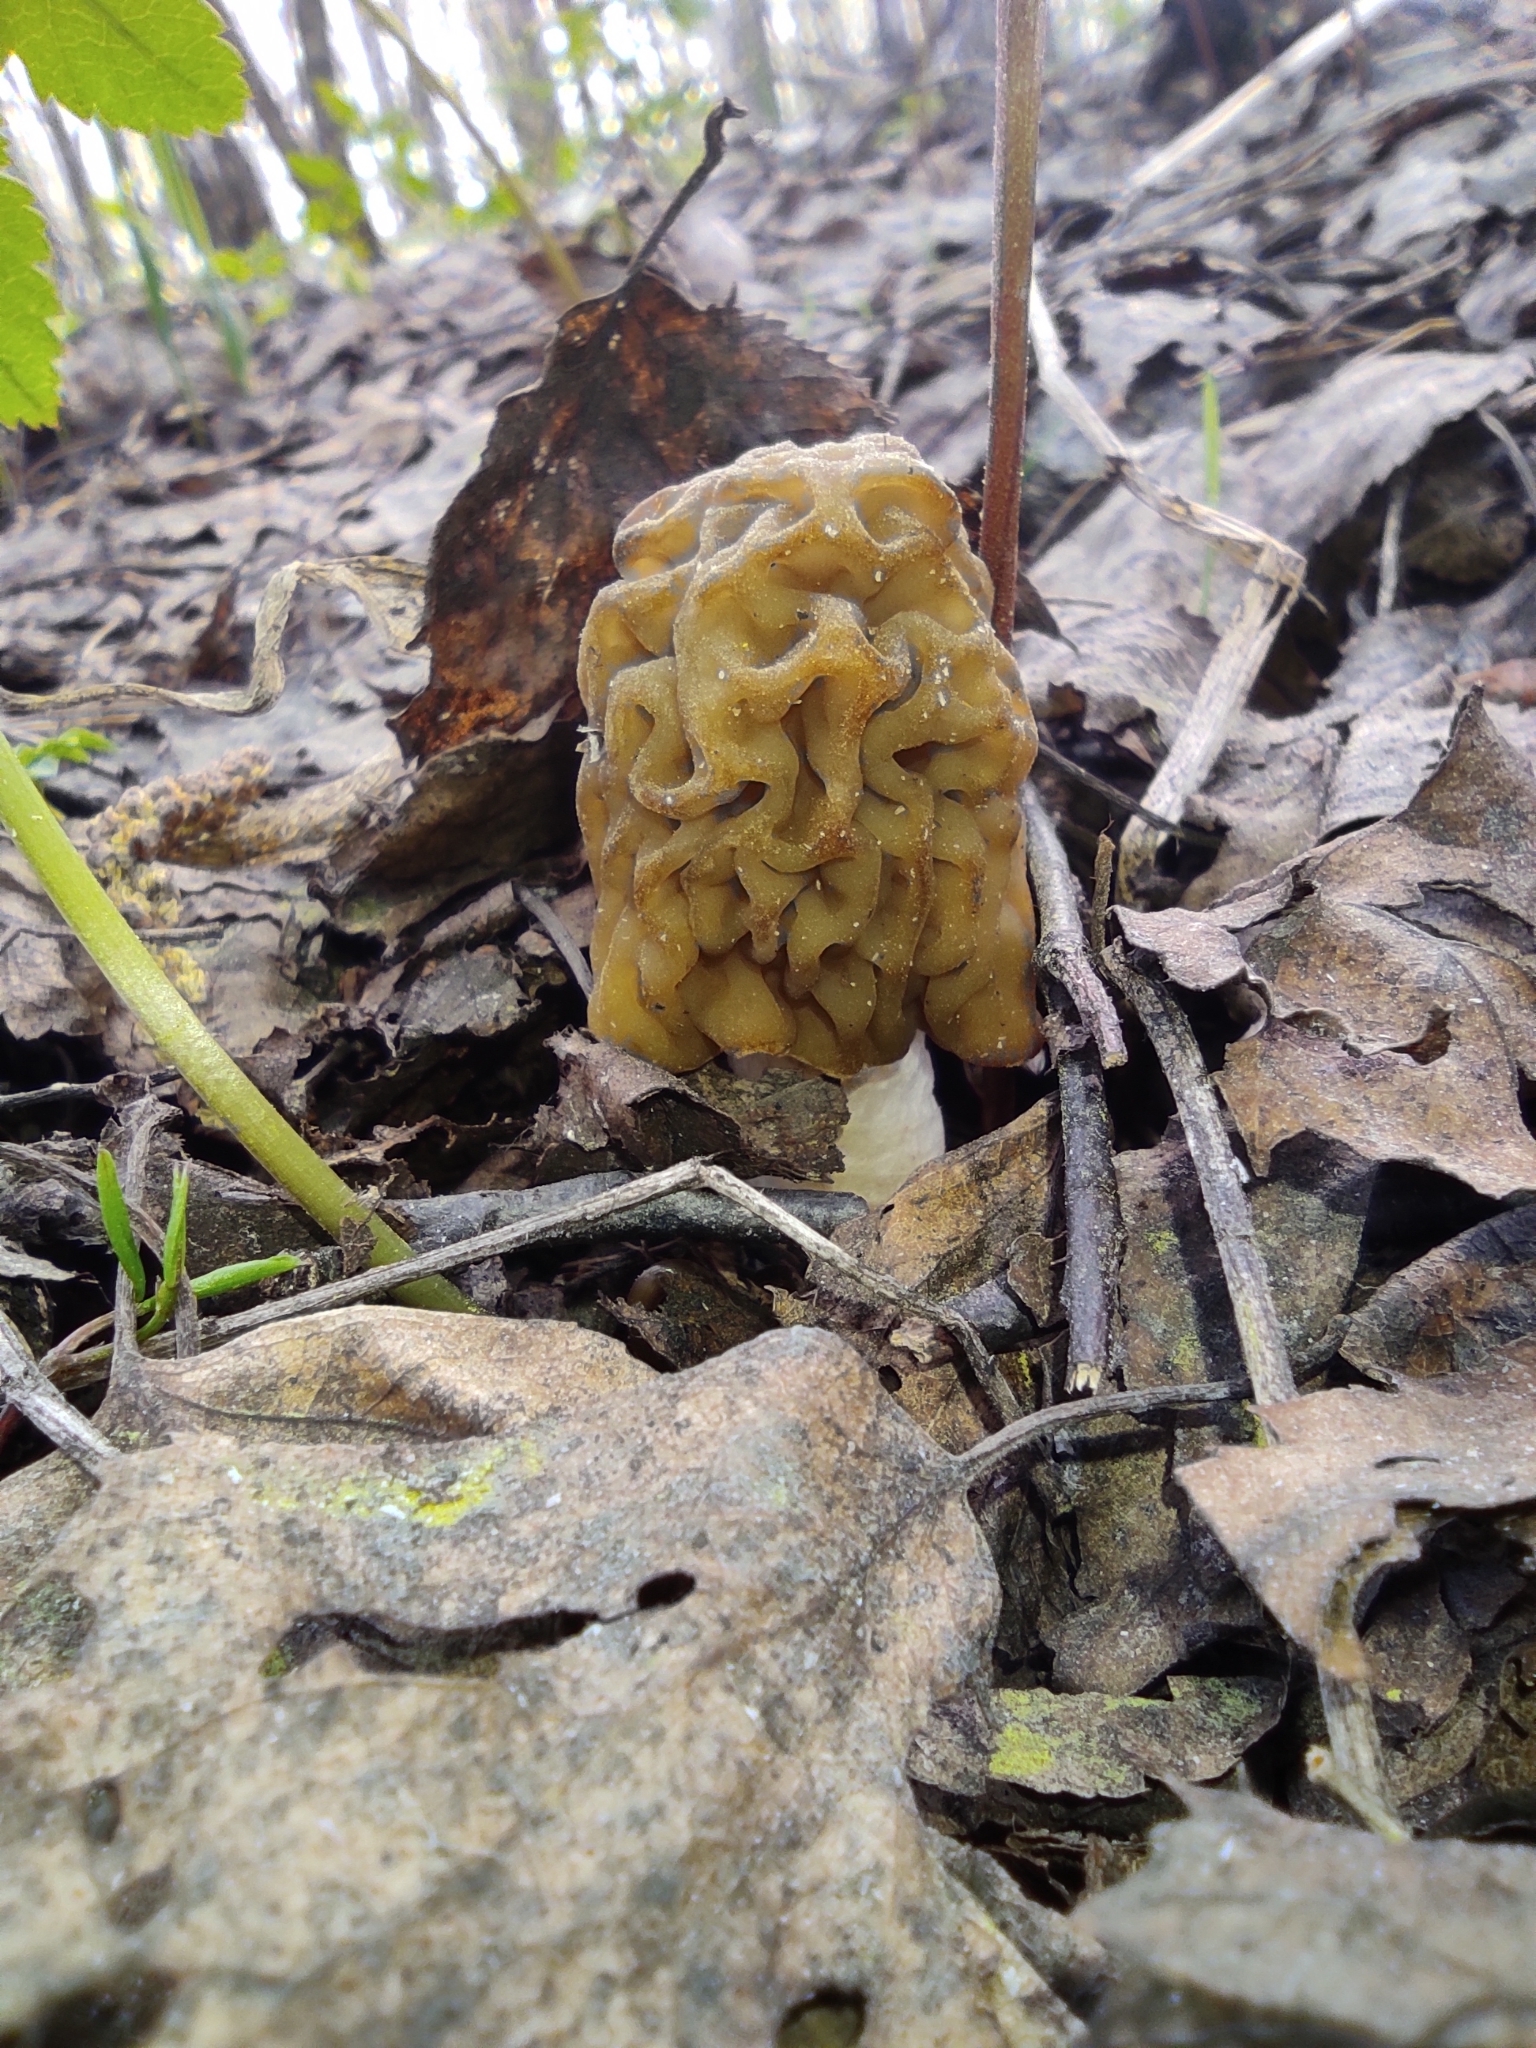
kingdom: Fungi
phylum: Ascomycota
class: Pezizomycetes
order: Pezizales
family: Morchellaceae
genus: Verpa
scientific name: Verpa bohemica
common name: Wrinkled thimble morel
